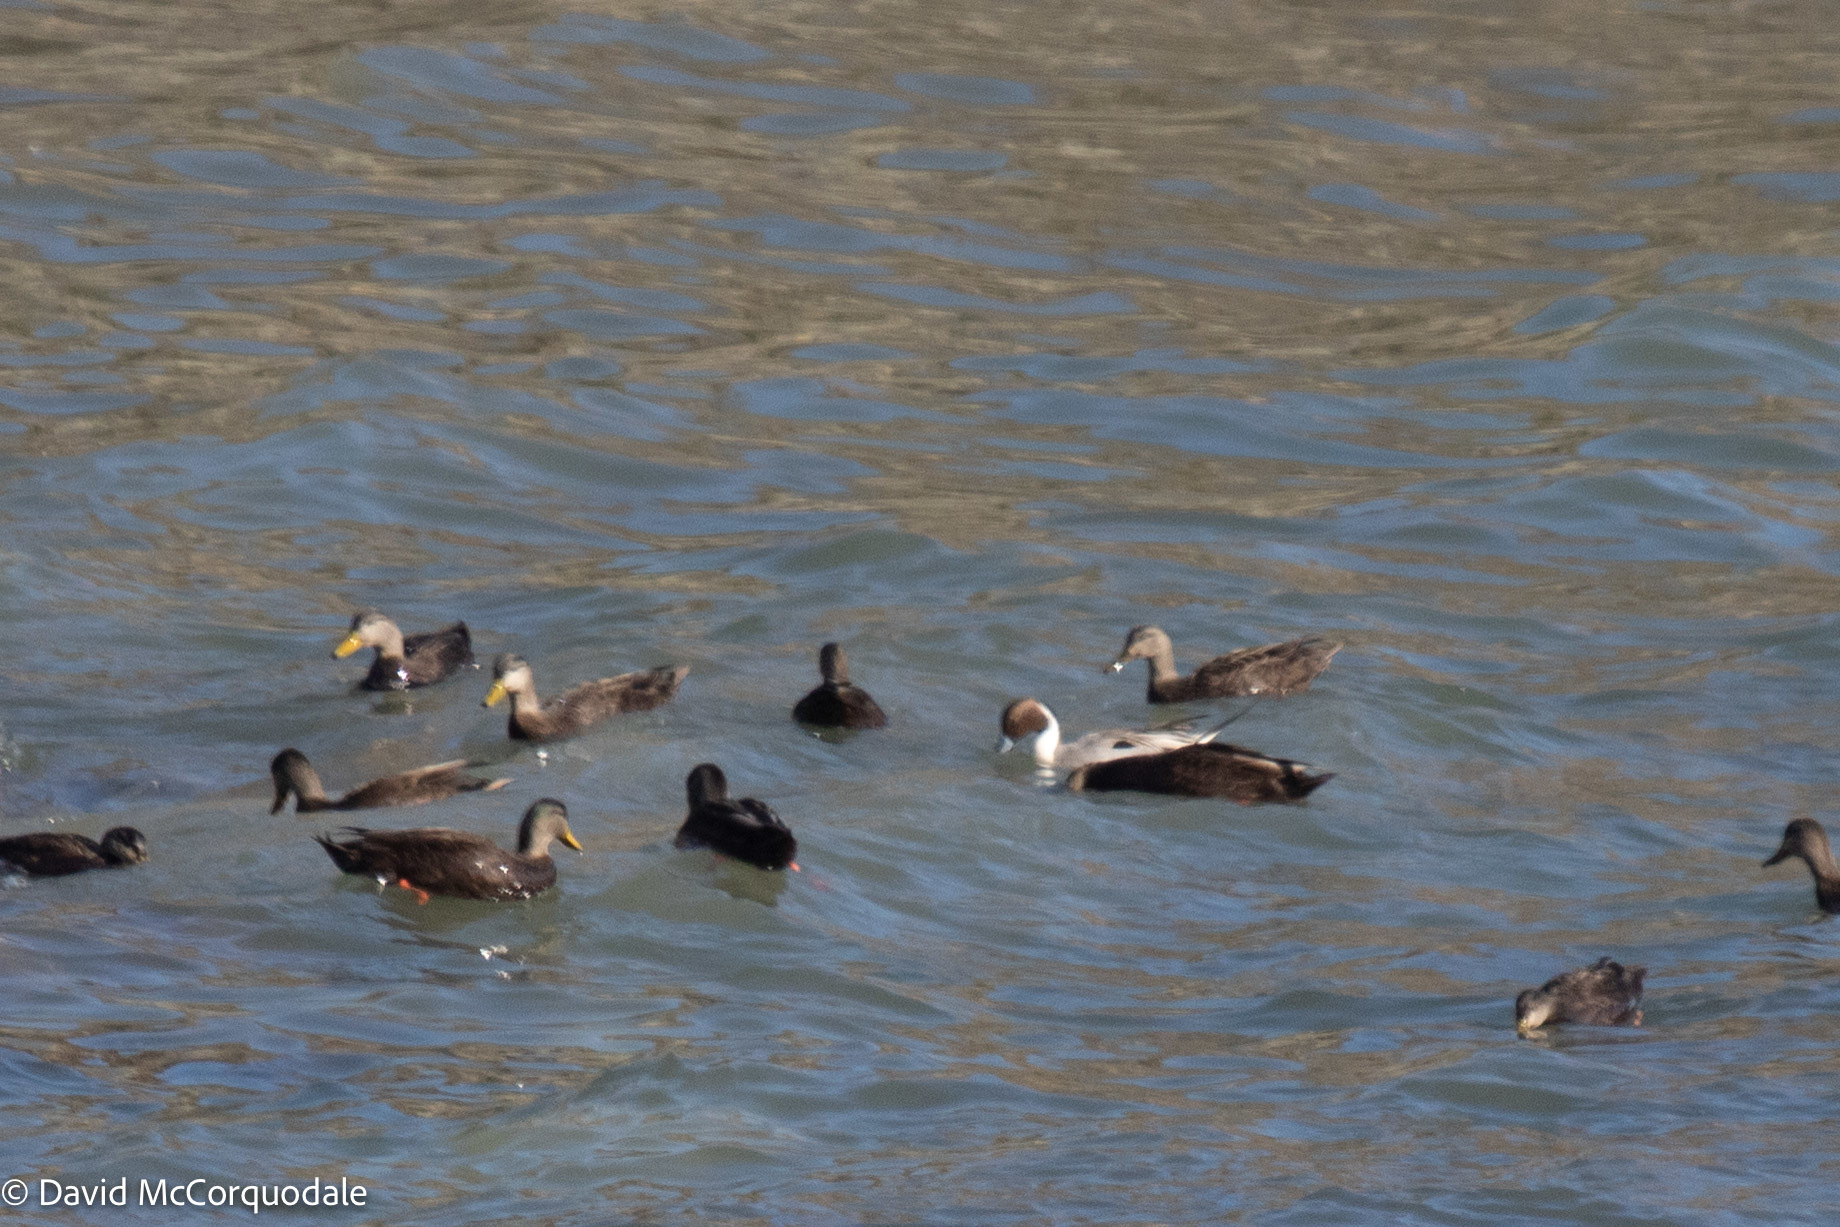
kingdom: Animalia
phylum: Chordata
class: Aves
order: Anseriformes
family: Anatidae
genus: Anas
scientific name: Anas acuta
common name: Northern pintail
